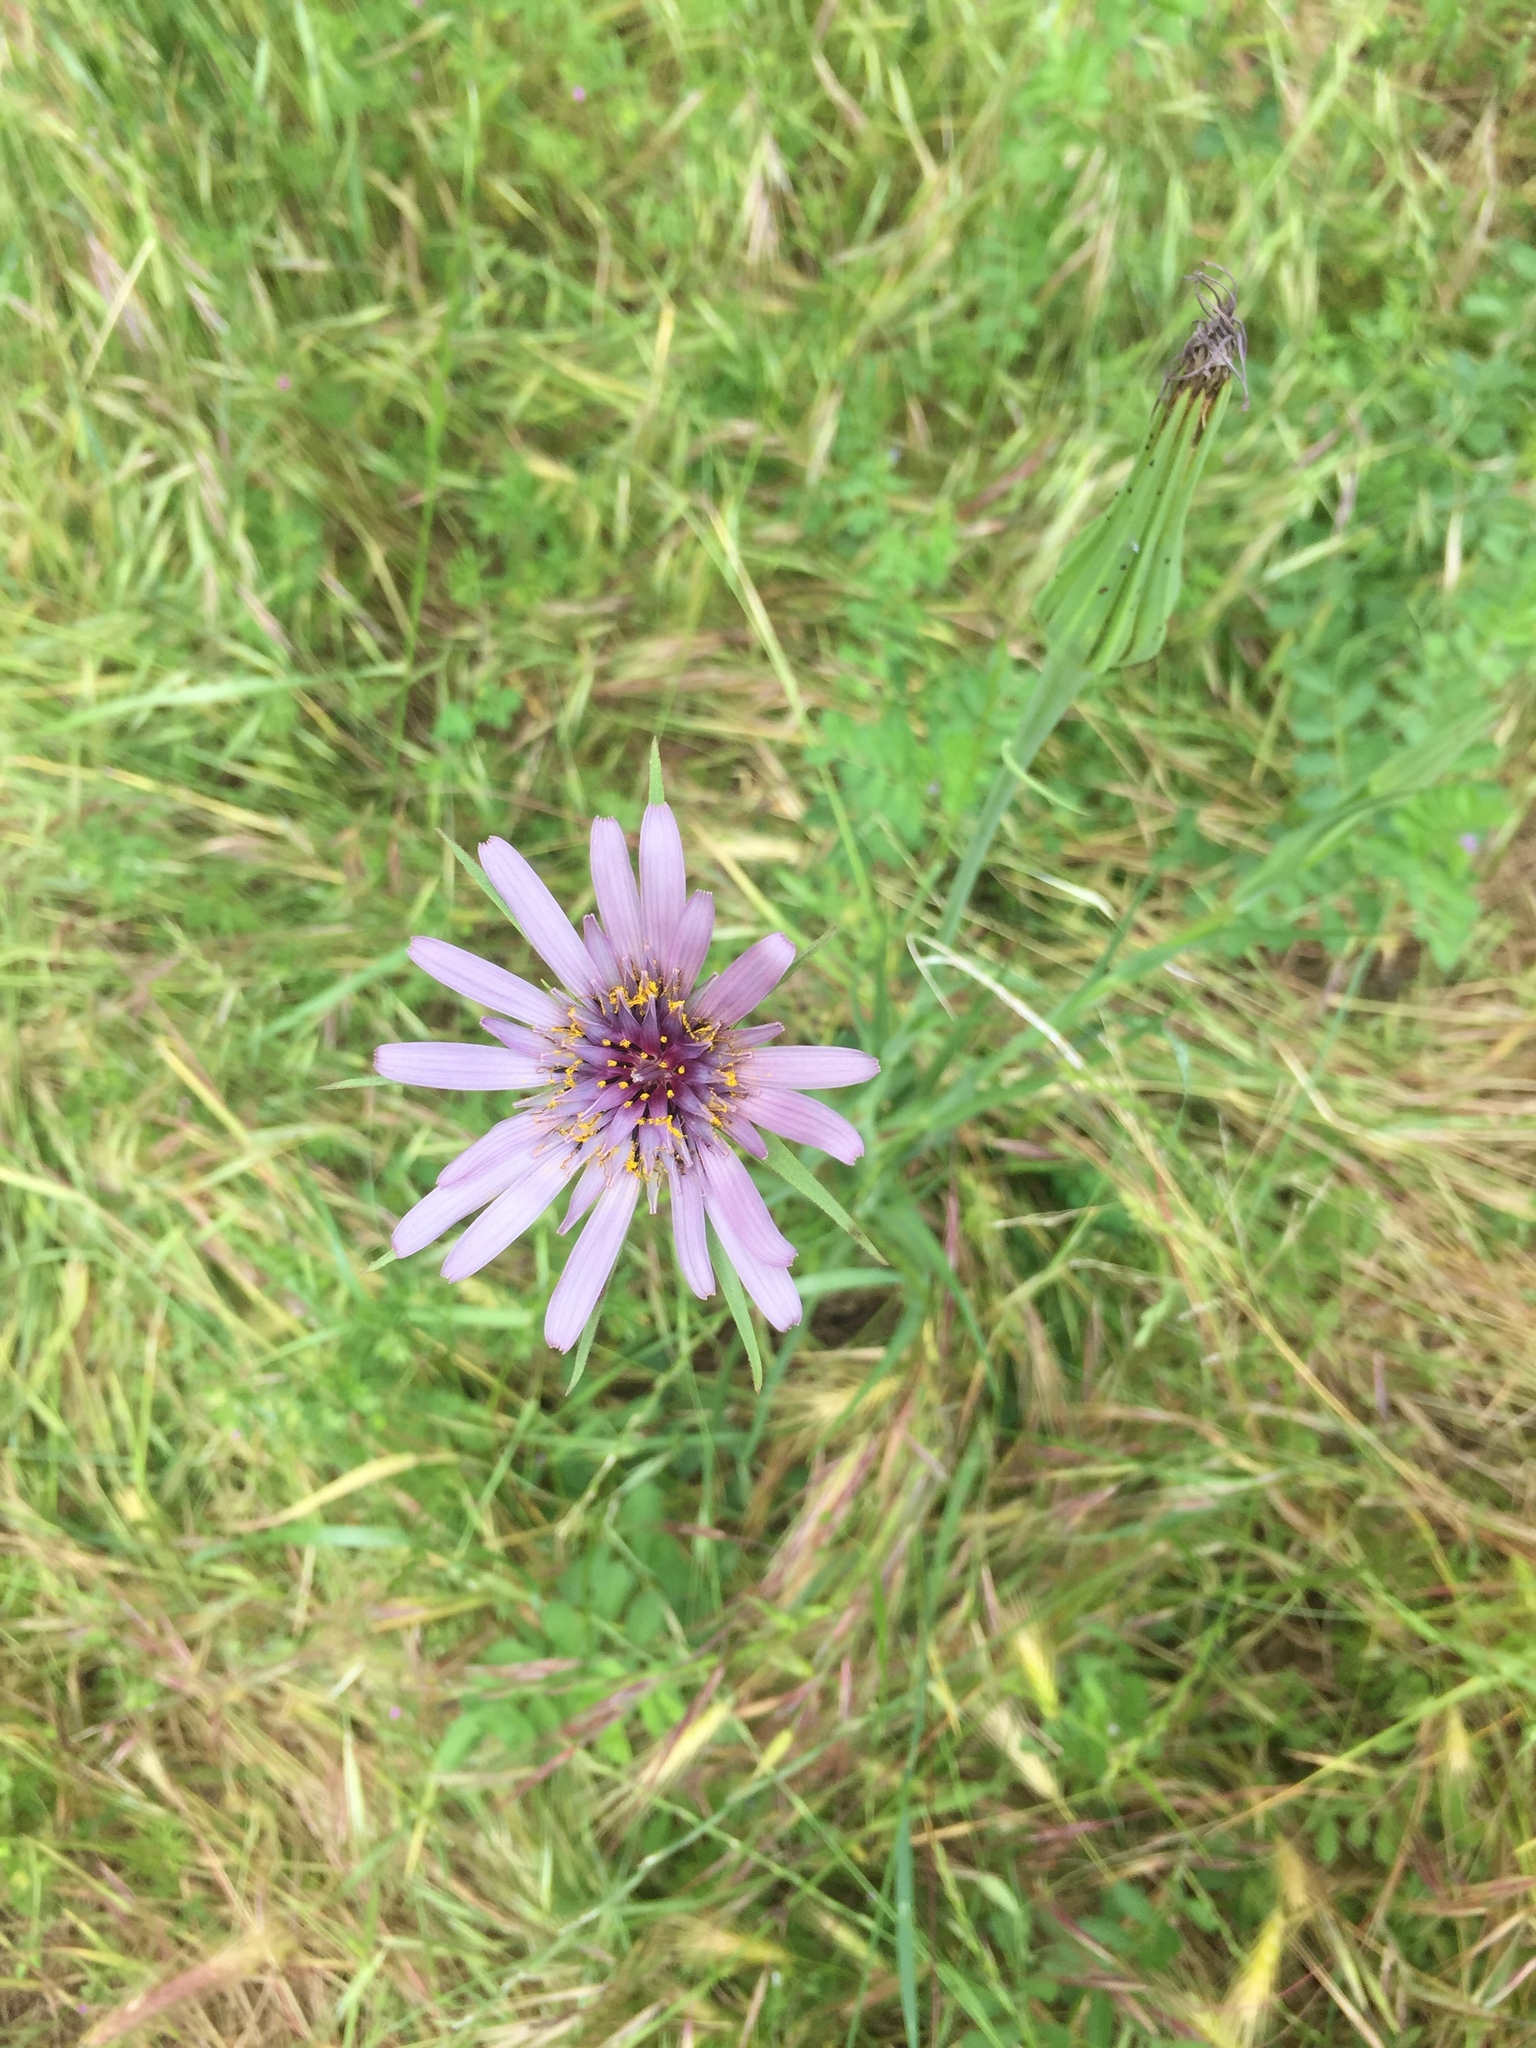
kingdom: Plantae
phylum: Tracheophyta
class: Magnoliopsida
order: Asterales
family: Asteraceae
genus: Tragopogon
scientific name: Tragopogon porrifolius
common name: Salsify
